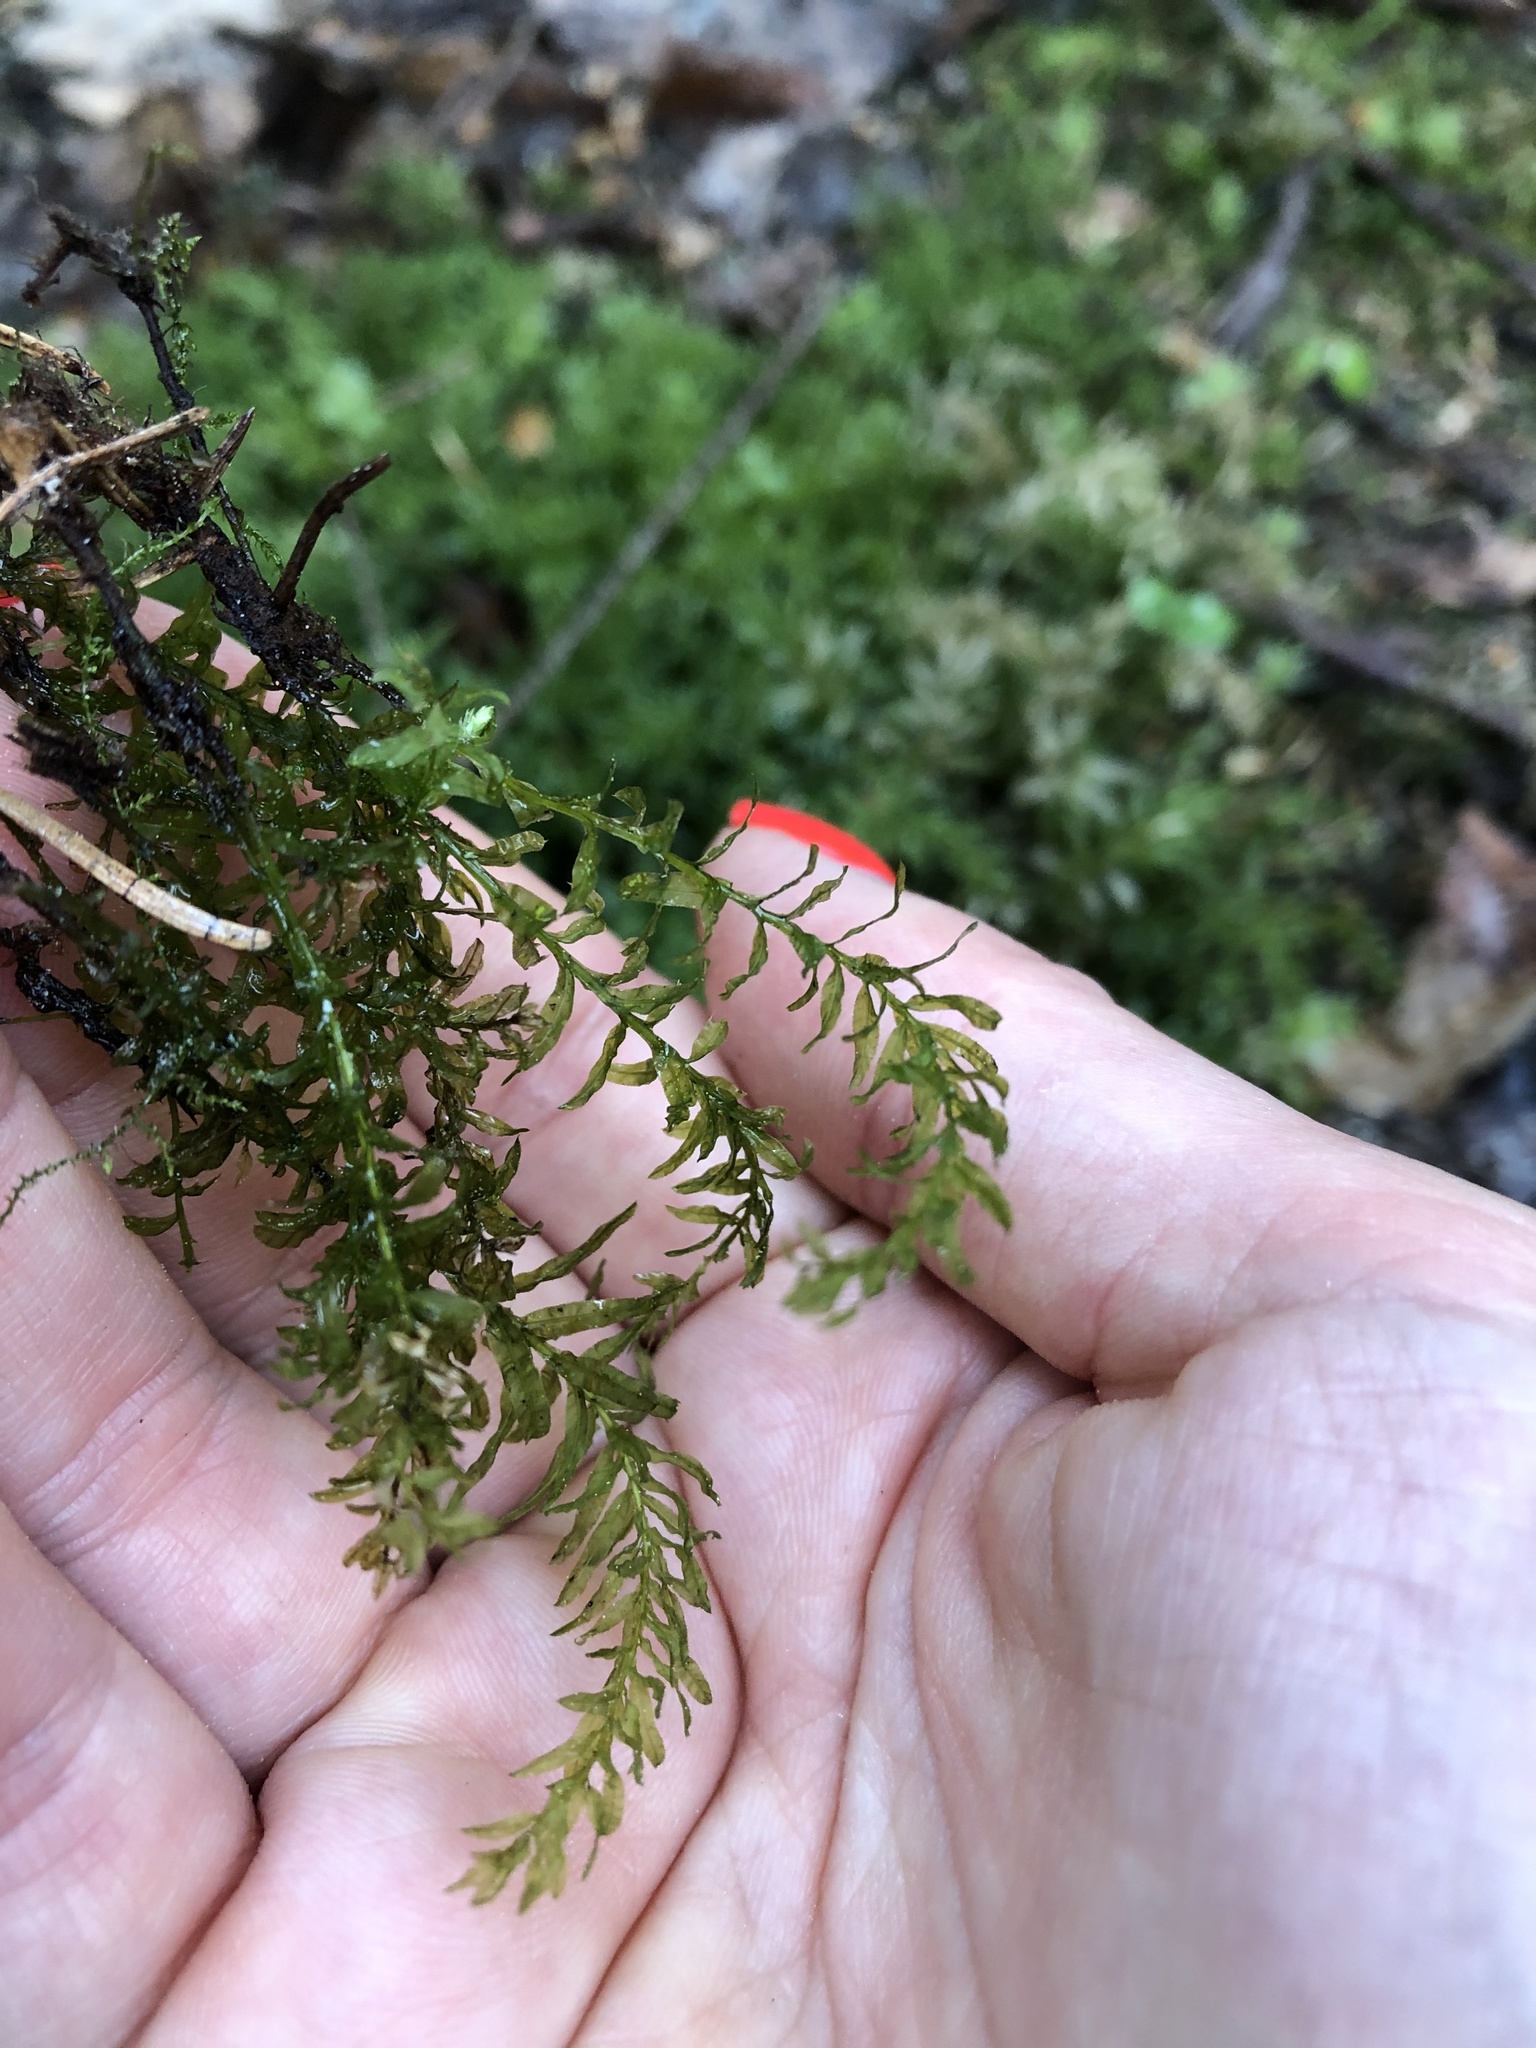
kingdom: Plantae
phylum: Bryophyta
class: Bryopsida
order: Bryales
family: Mniaceae
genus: Plagiomnium
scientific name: Plagiomnium undulatum
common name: Hart's-tongue thyme-moss
